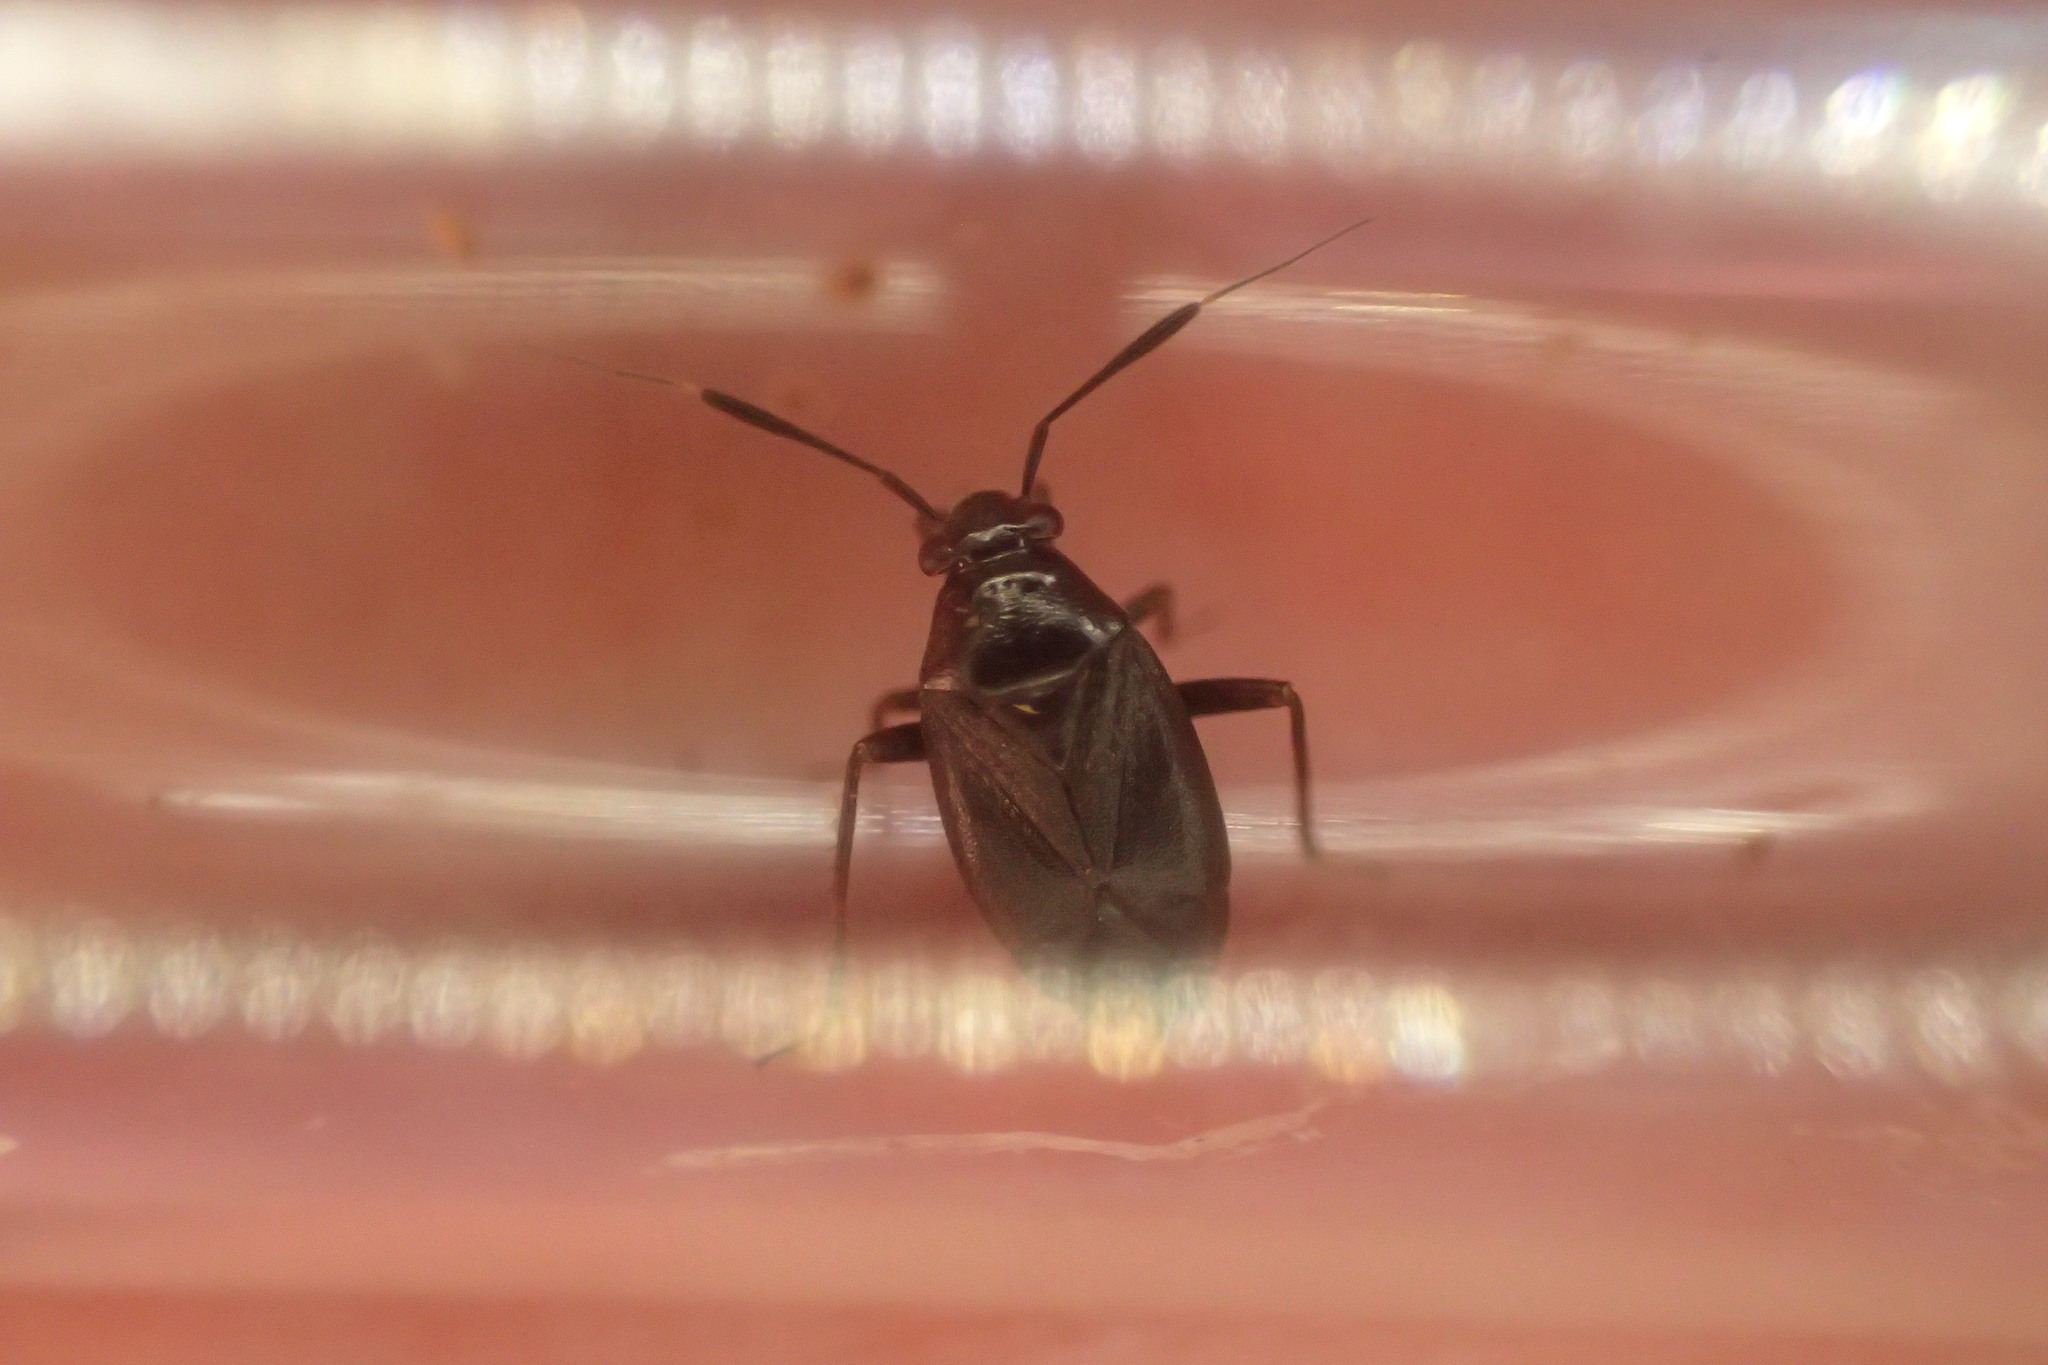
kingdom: Animalia
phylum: Arthropoda
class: Insecta
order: Hemiptera
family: Miridae
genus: Capsus
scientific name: Capsus ater
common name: Black plant bug
